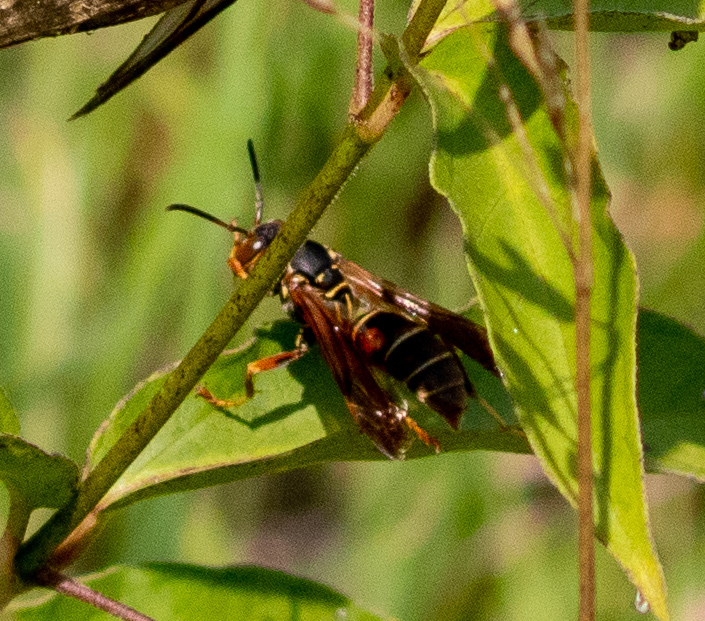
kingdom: Animalia
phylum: Arthropoda
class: Insecta
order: Hymenoptera
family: Eumenidae
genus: Polistes
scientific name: Polistes fuscatus
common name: Dark paper wasp
